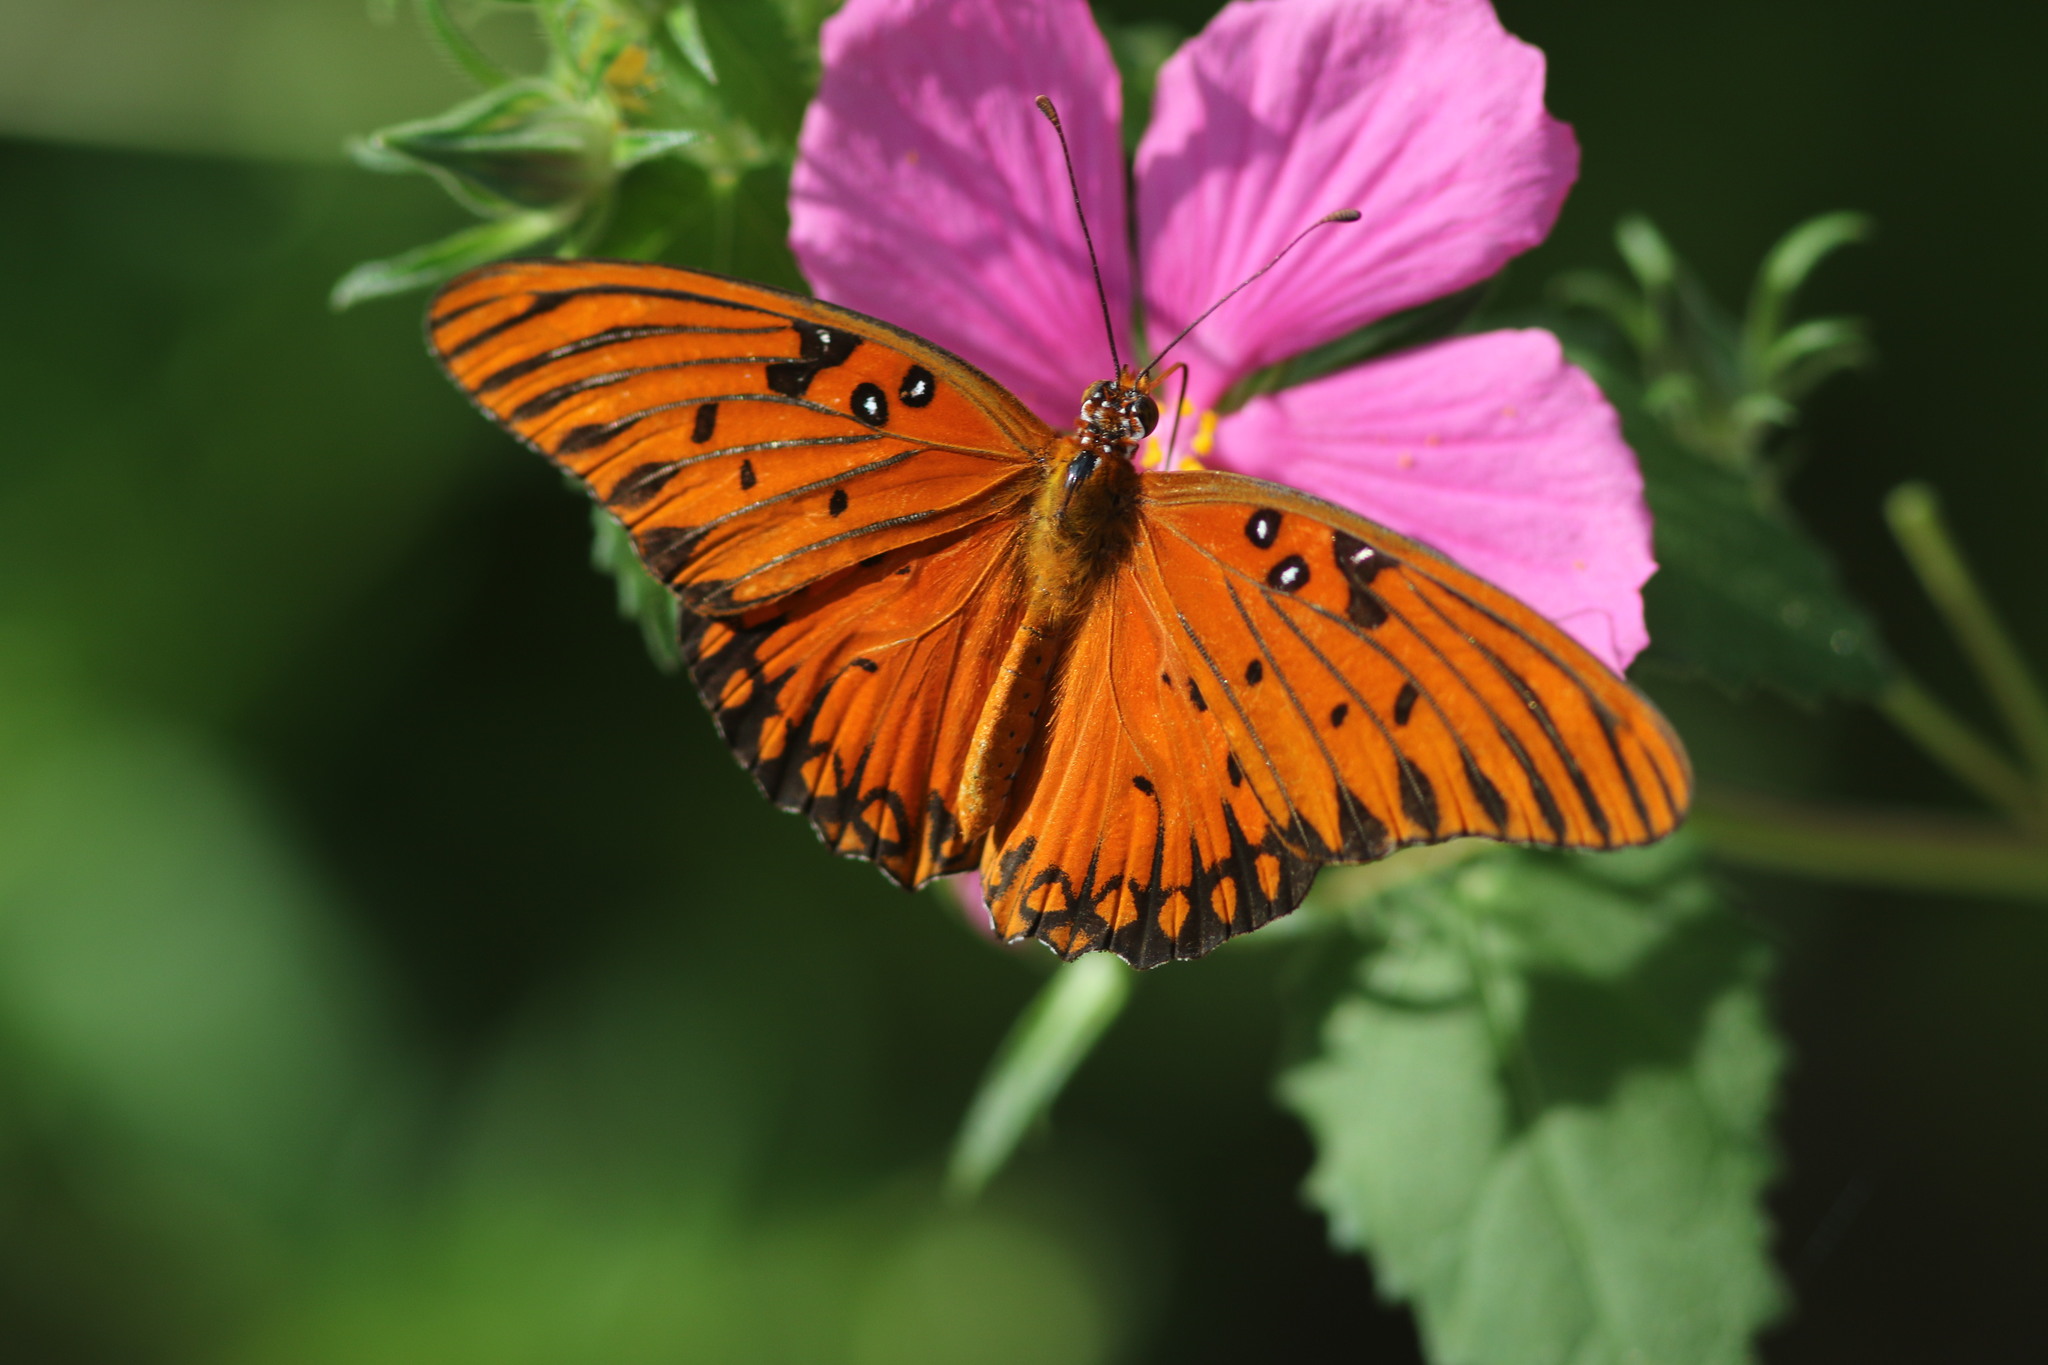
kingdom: Animalia
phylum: Arthropoda
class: Insecta
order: Lepidoptera
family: Nymphalidae
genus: Dione
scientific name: Dione vanillae
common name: Gulf fritillary
